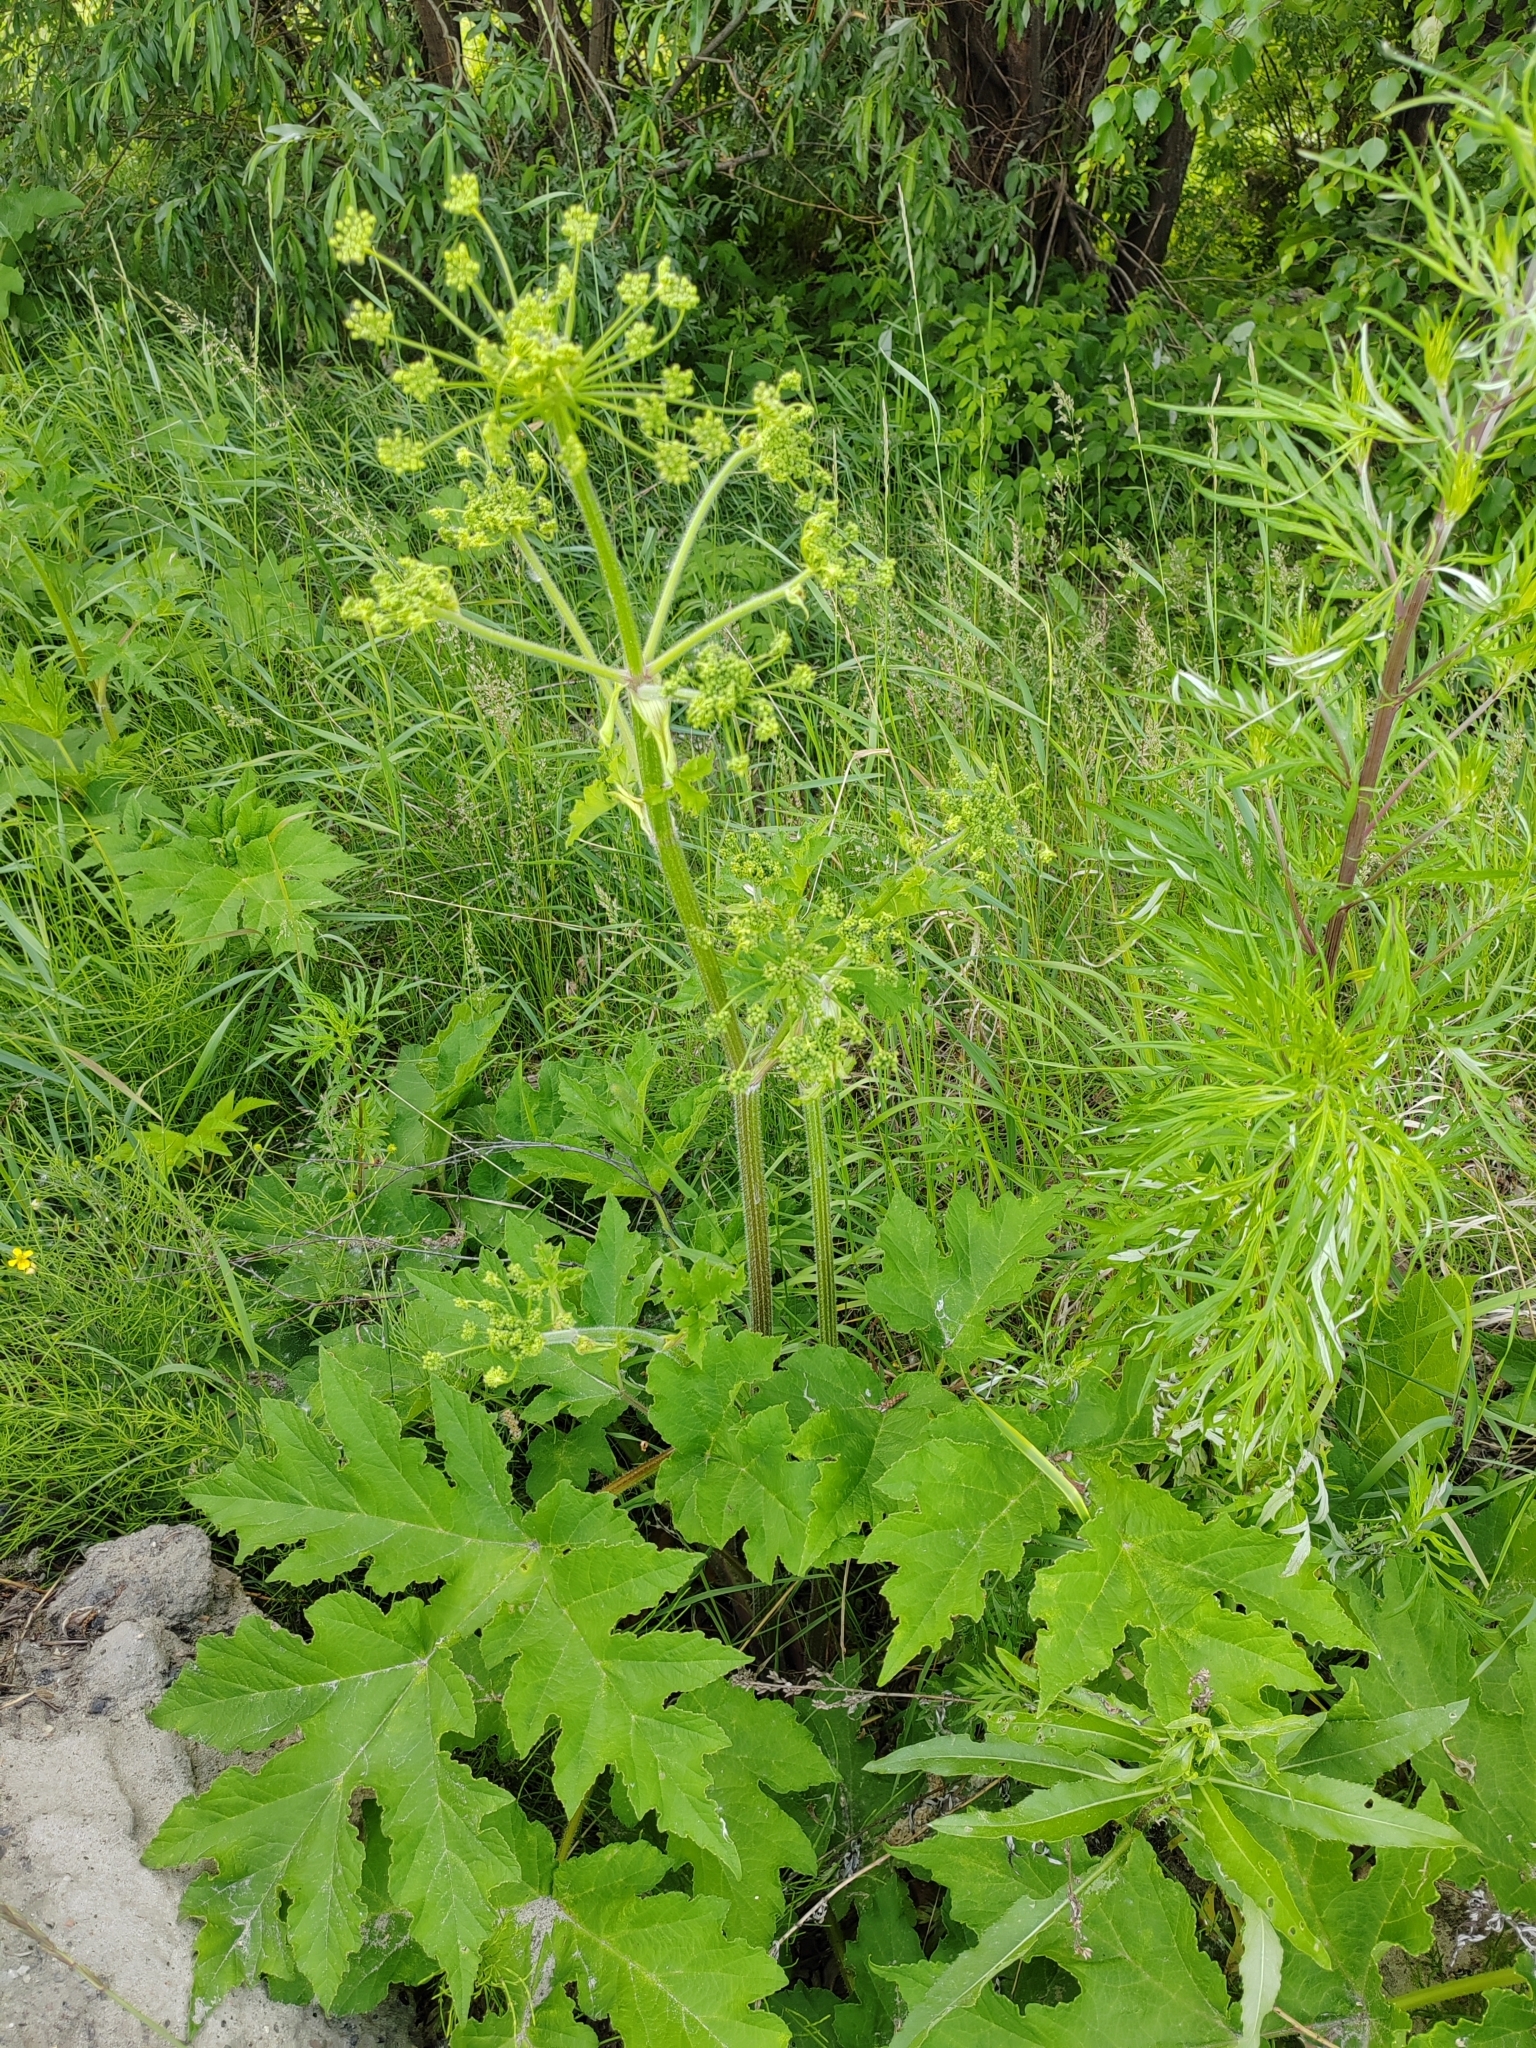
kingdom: Plantae
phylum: Tracheophyta
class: Magnoliopsida
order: Apiales
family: Apiaceae
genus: Heracleum
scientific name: Heracleum sphondylium
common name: Hogweed
